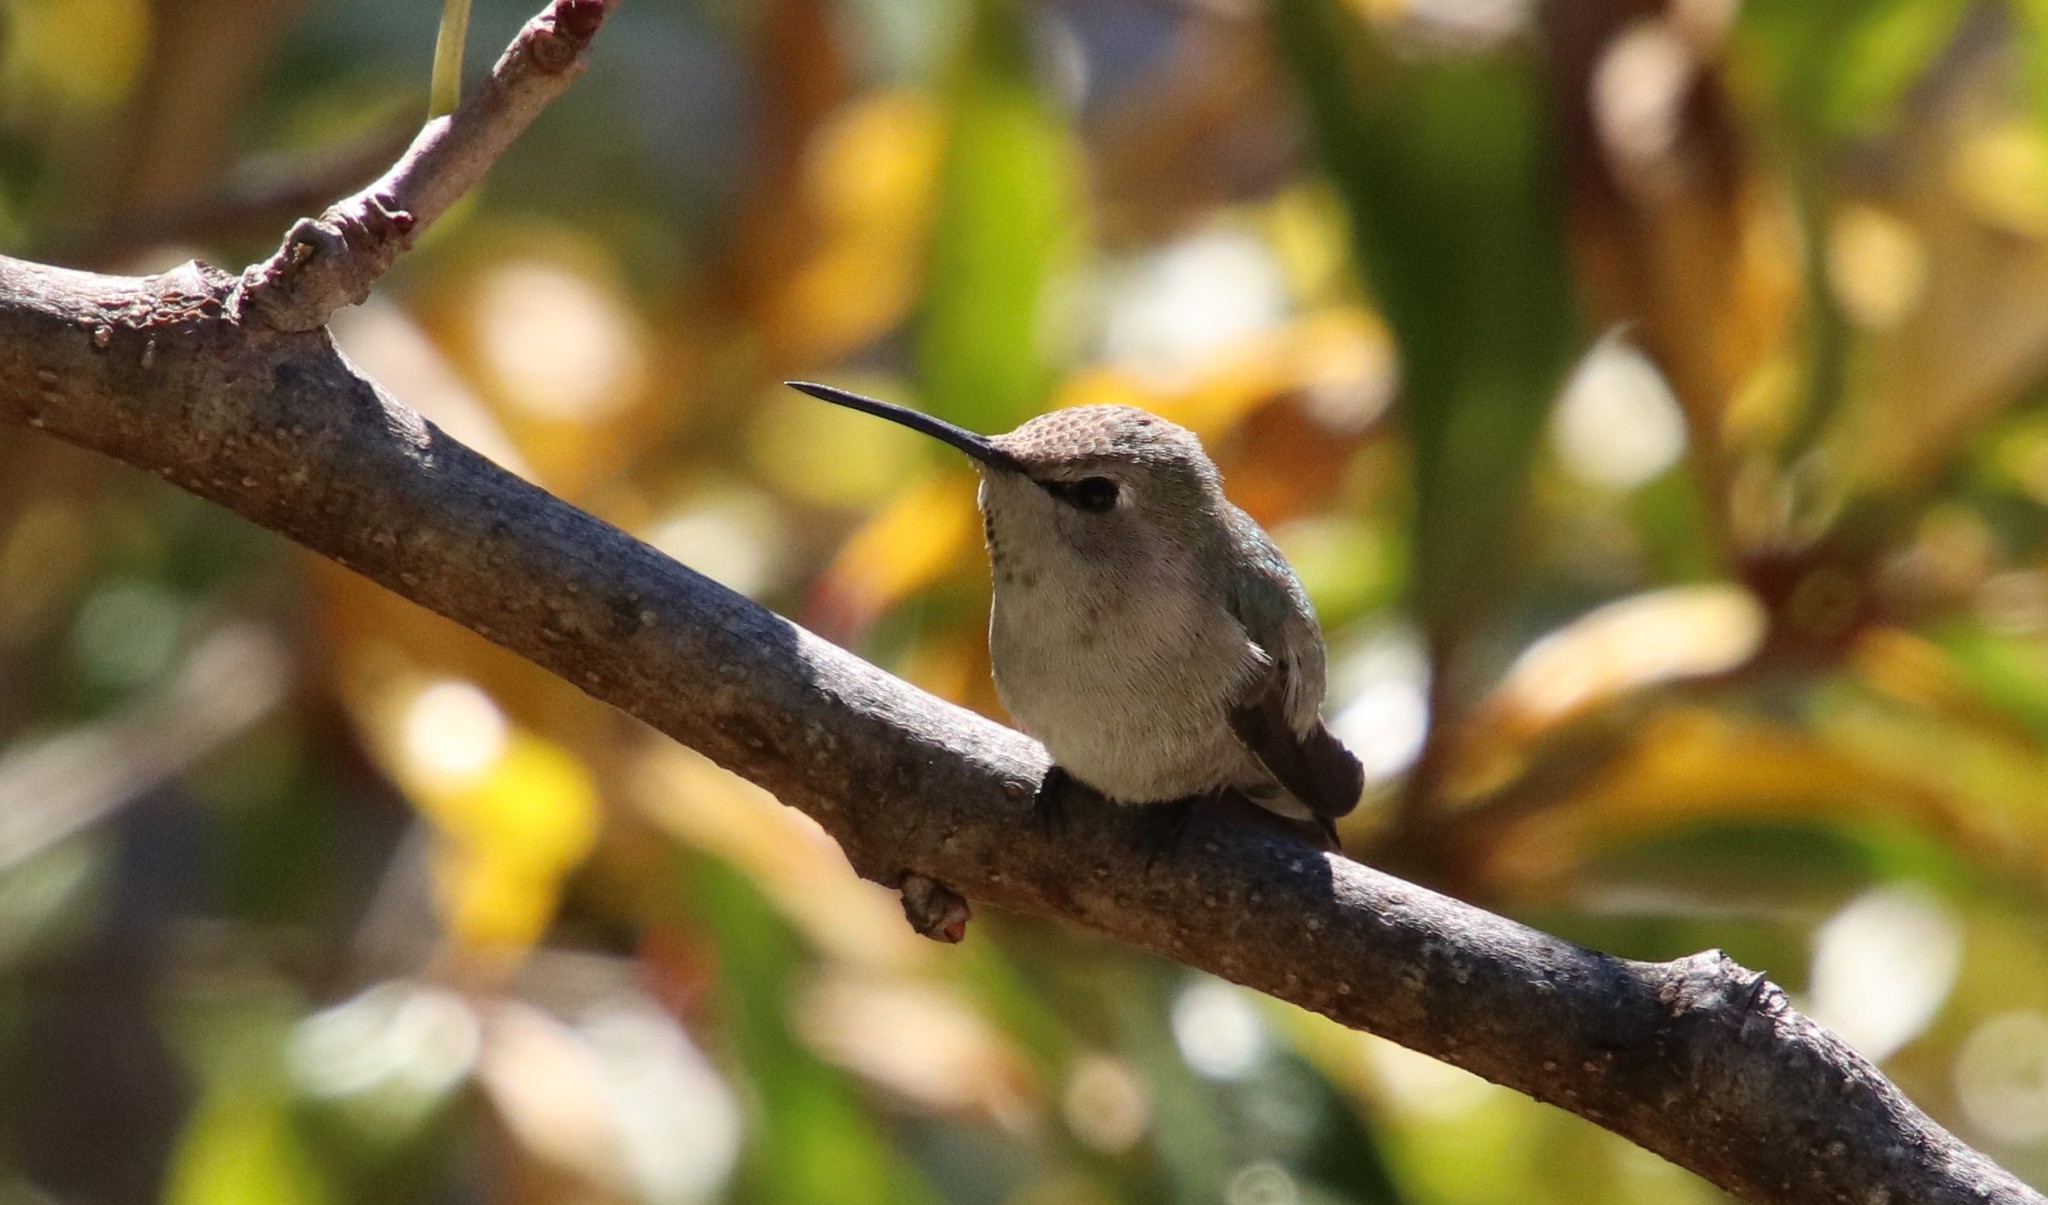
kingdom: Animalia
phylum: Chordata
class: Aves
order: Apodiformes
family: Trochilidae
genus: Calypte
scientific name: Calypte costae
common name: Costa's hummingbird
